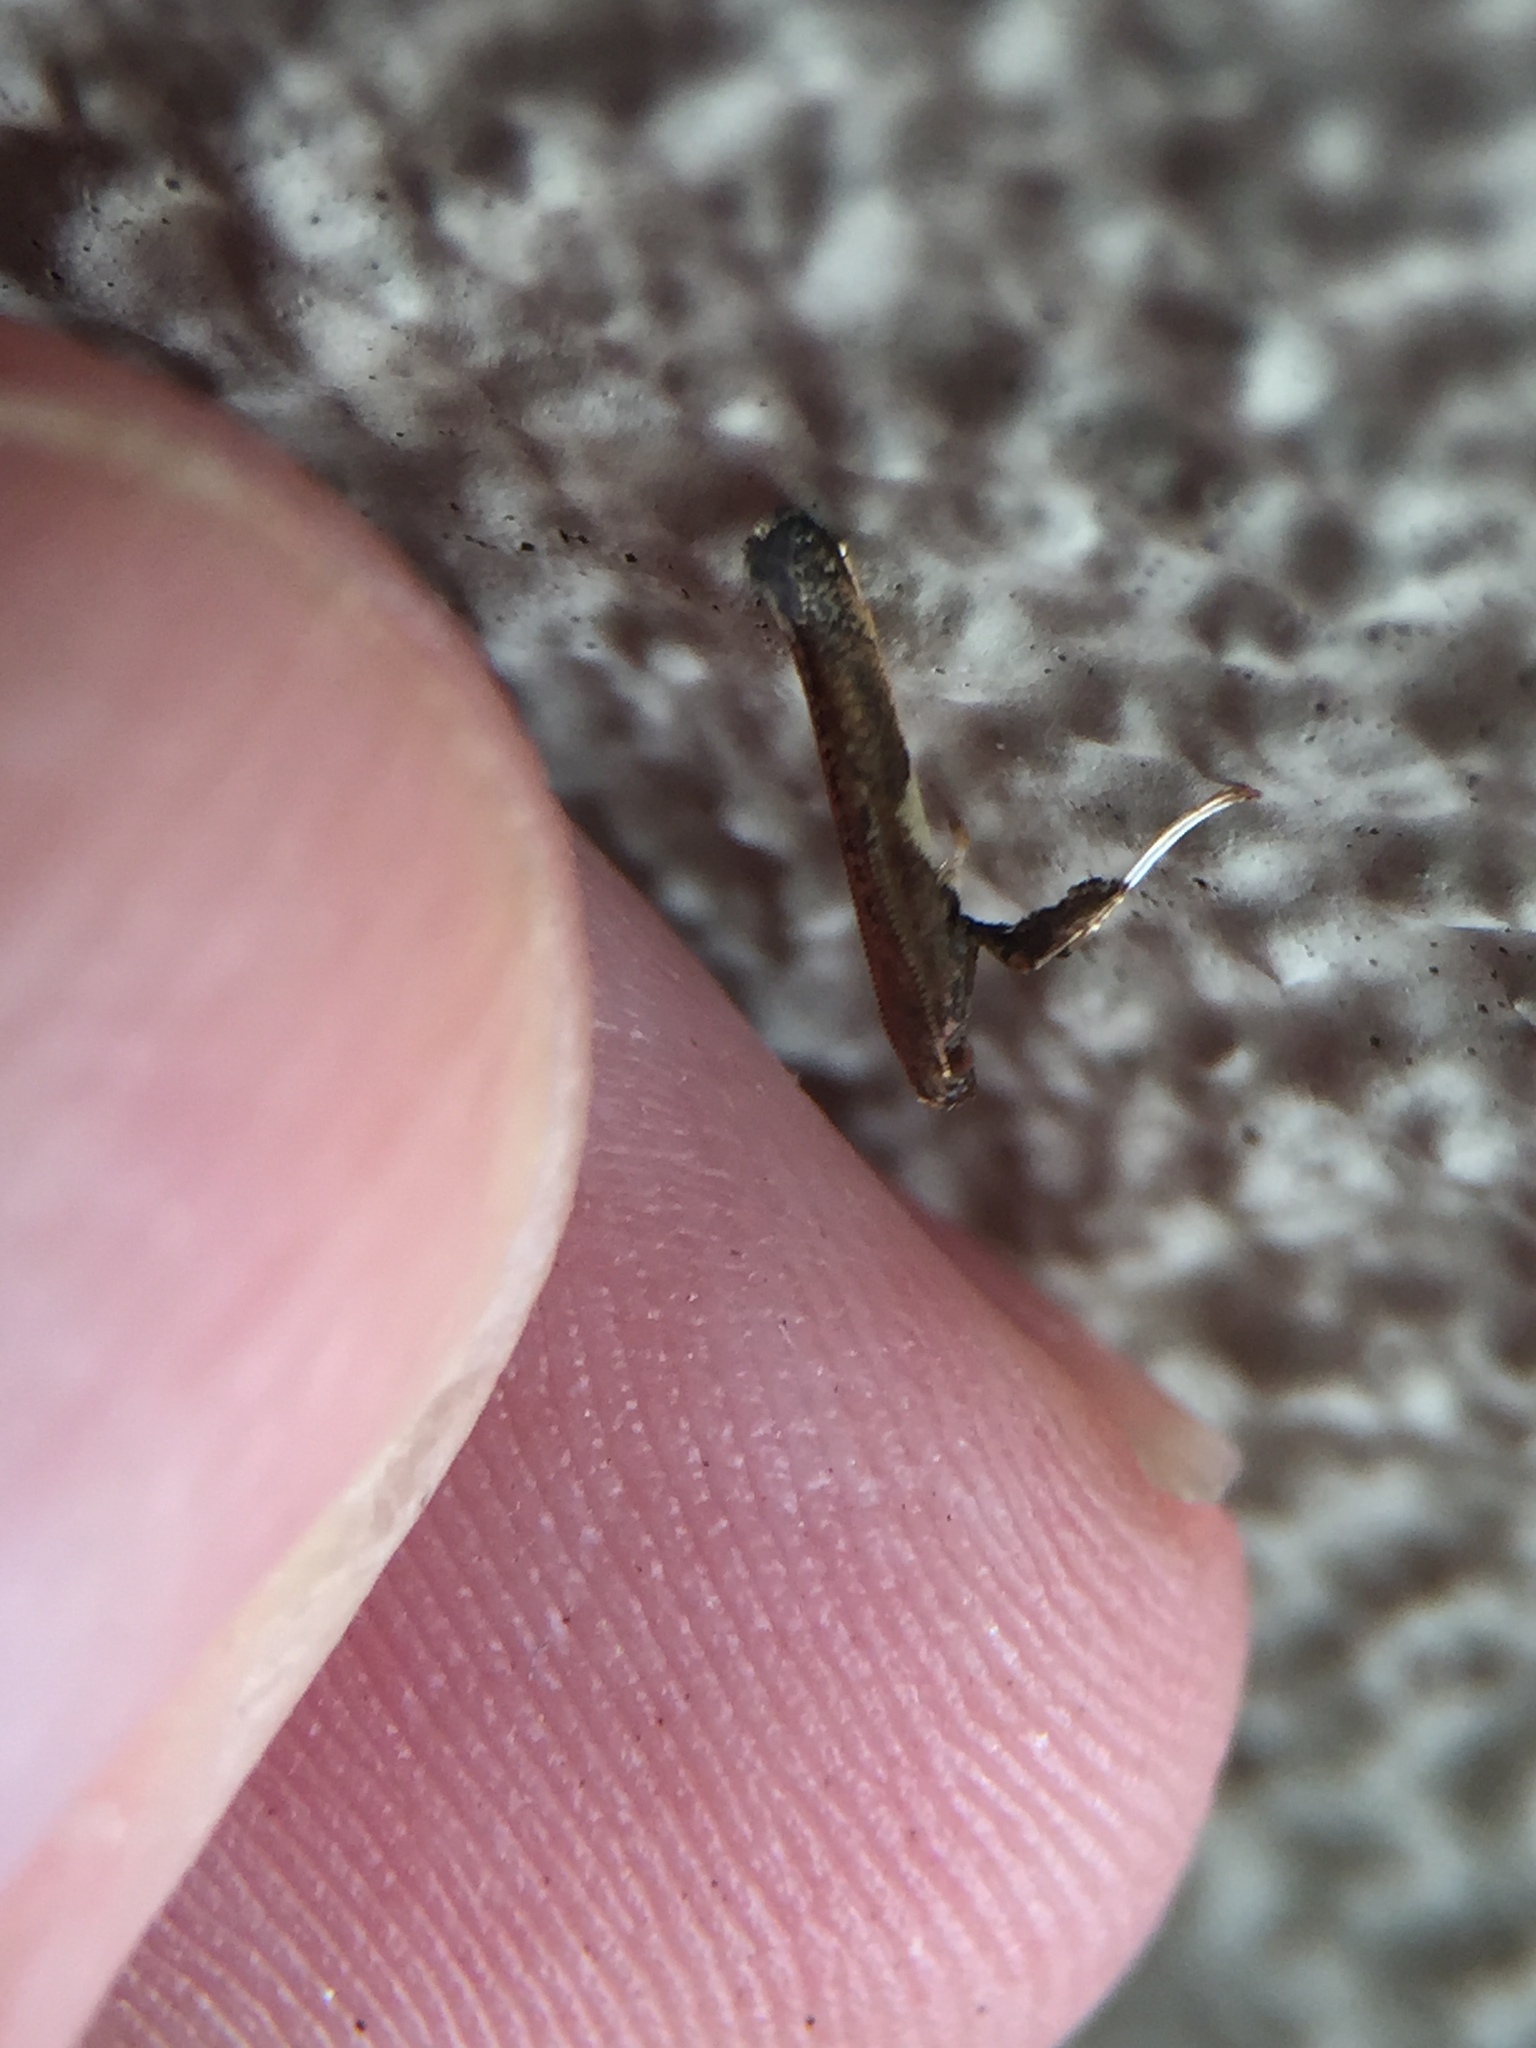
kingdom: Animalia
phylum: Arthropoda
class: Insecta
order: Lepidoptera
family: Gracillariidae
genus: Caloptilia
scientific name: Caloptilia chalcodelta
